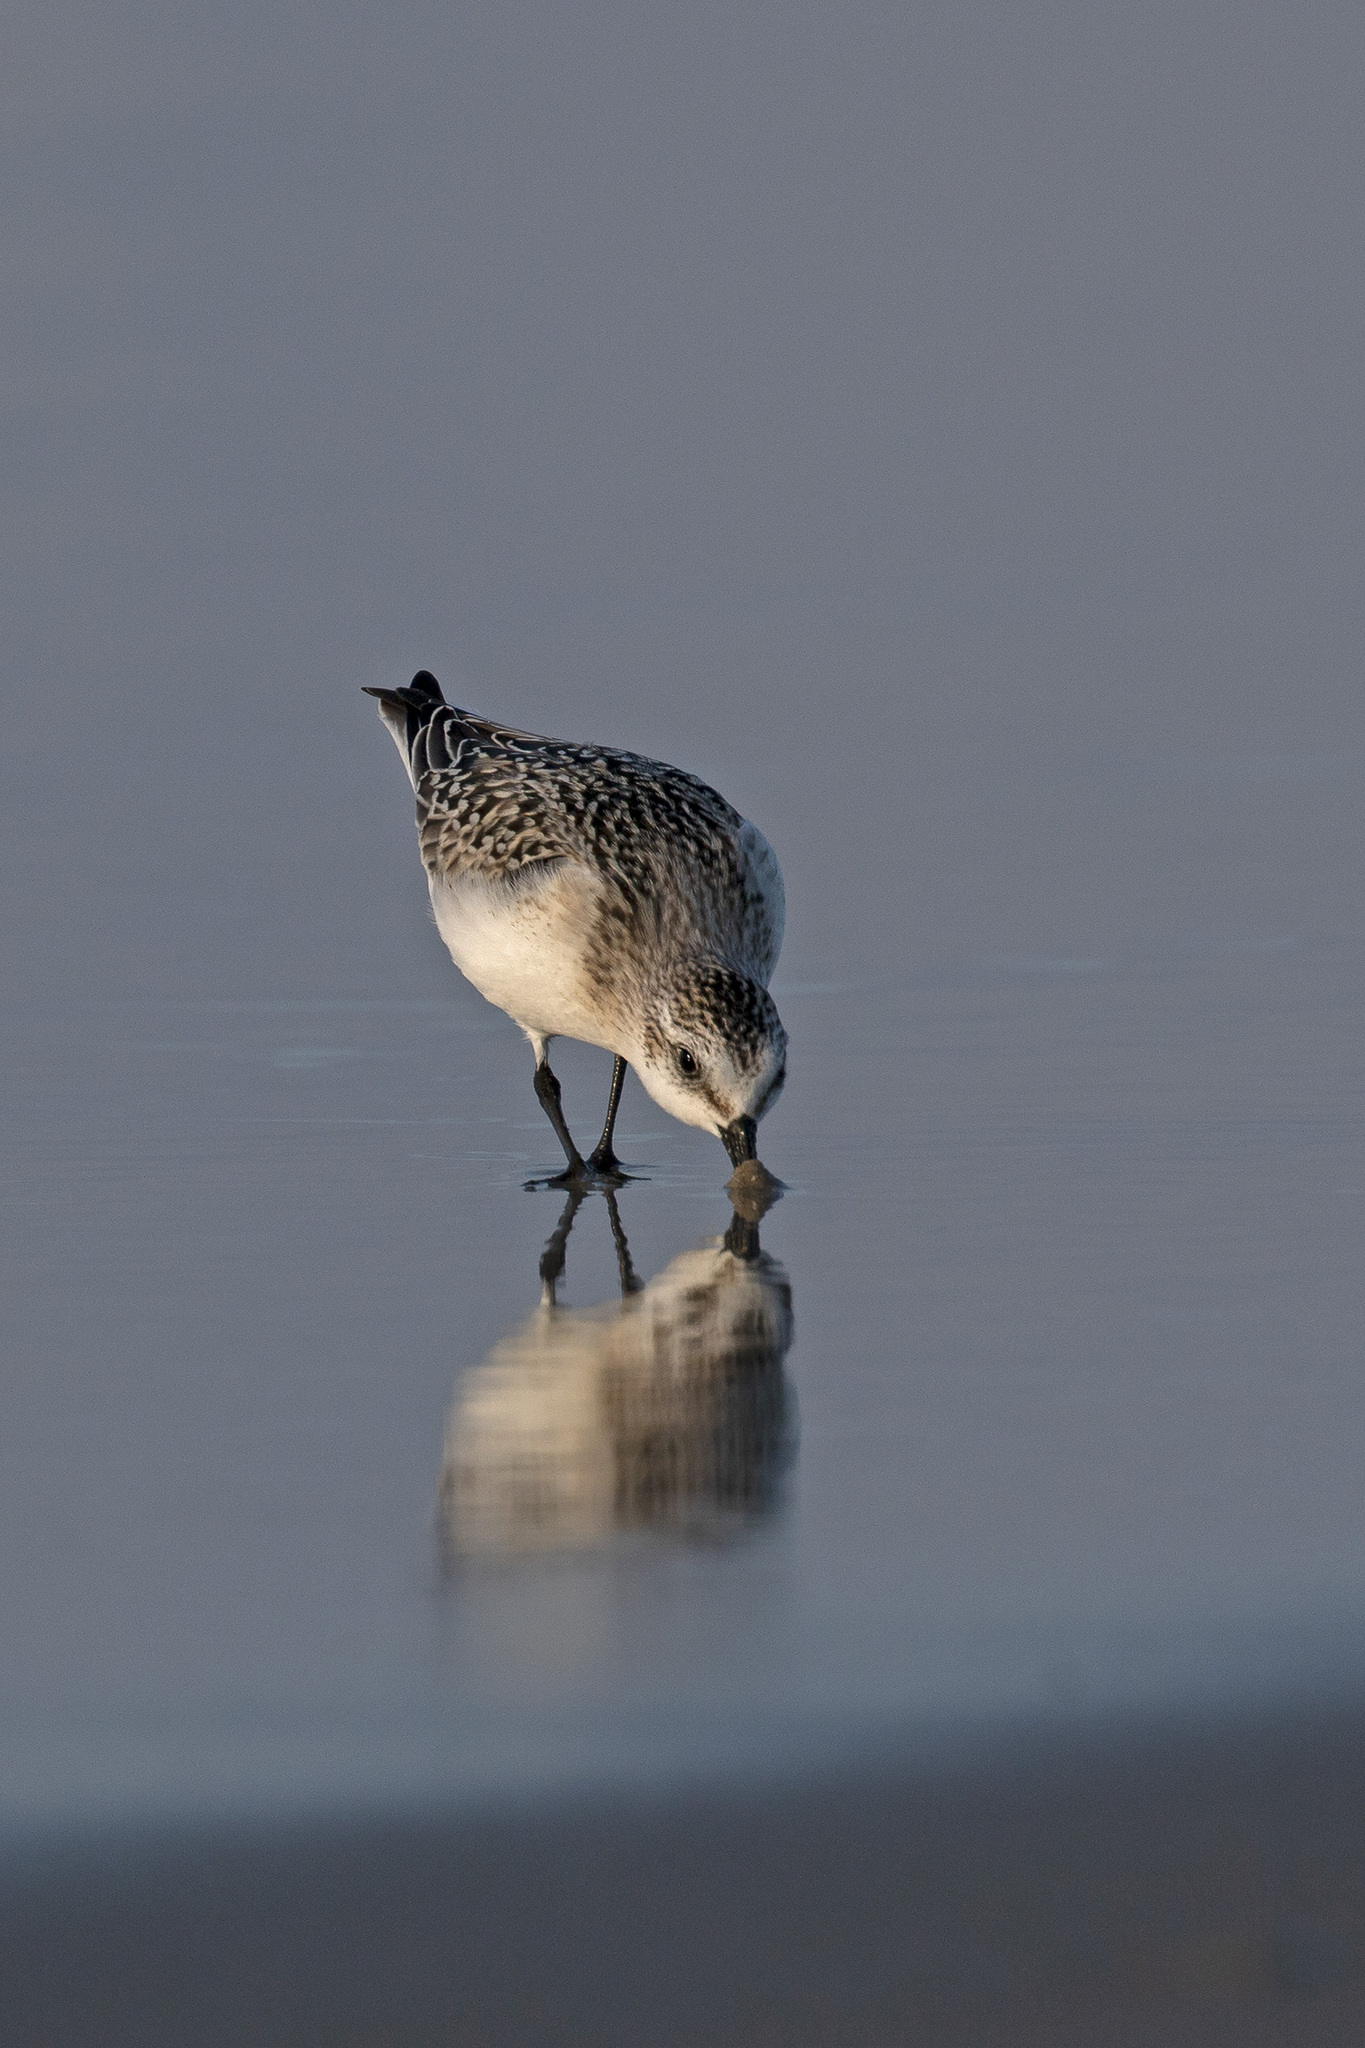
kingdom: Animalia
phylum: Chordata
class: Aves
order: Charadriiformes
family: Scolopacidae
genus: Calidris
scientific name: Calidris alba
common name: Sanderling
